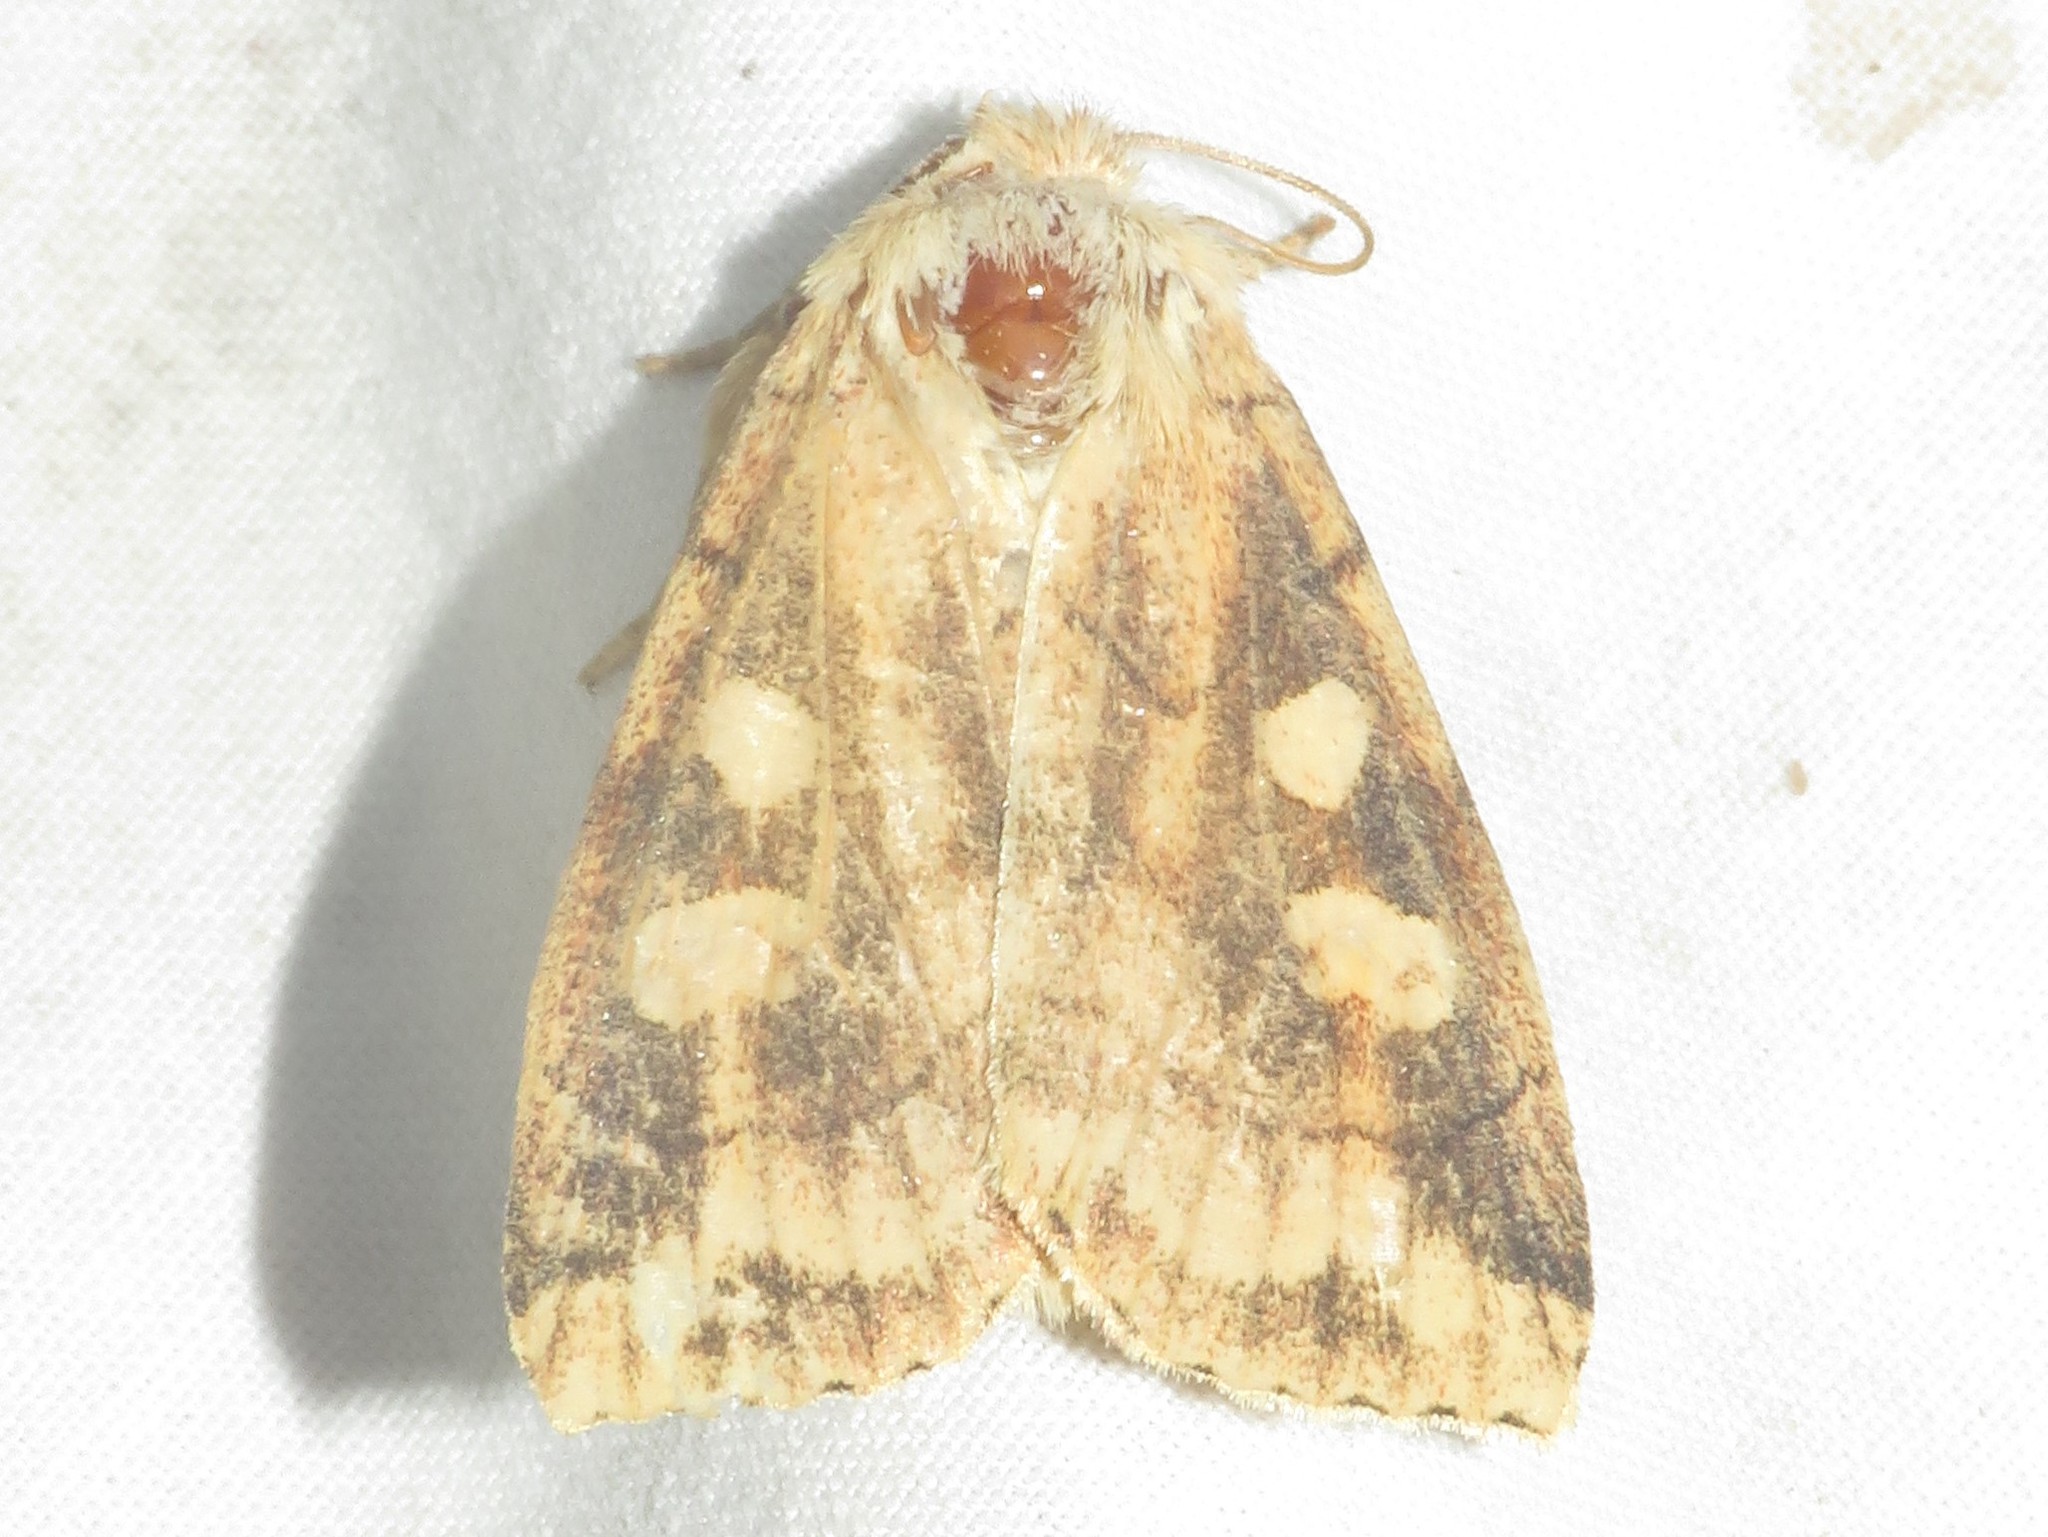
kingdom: Animalia
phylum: Arthropoda
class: Insecta
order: Lepidoptera
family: Noctuidae
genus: Enargia
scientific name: Enargia decolor
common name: Aspen twoleaf tier moth
